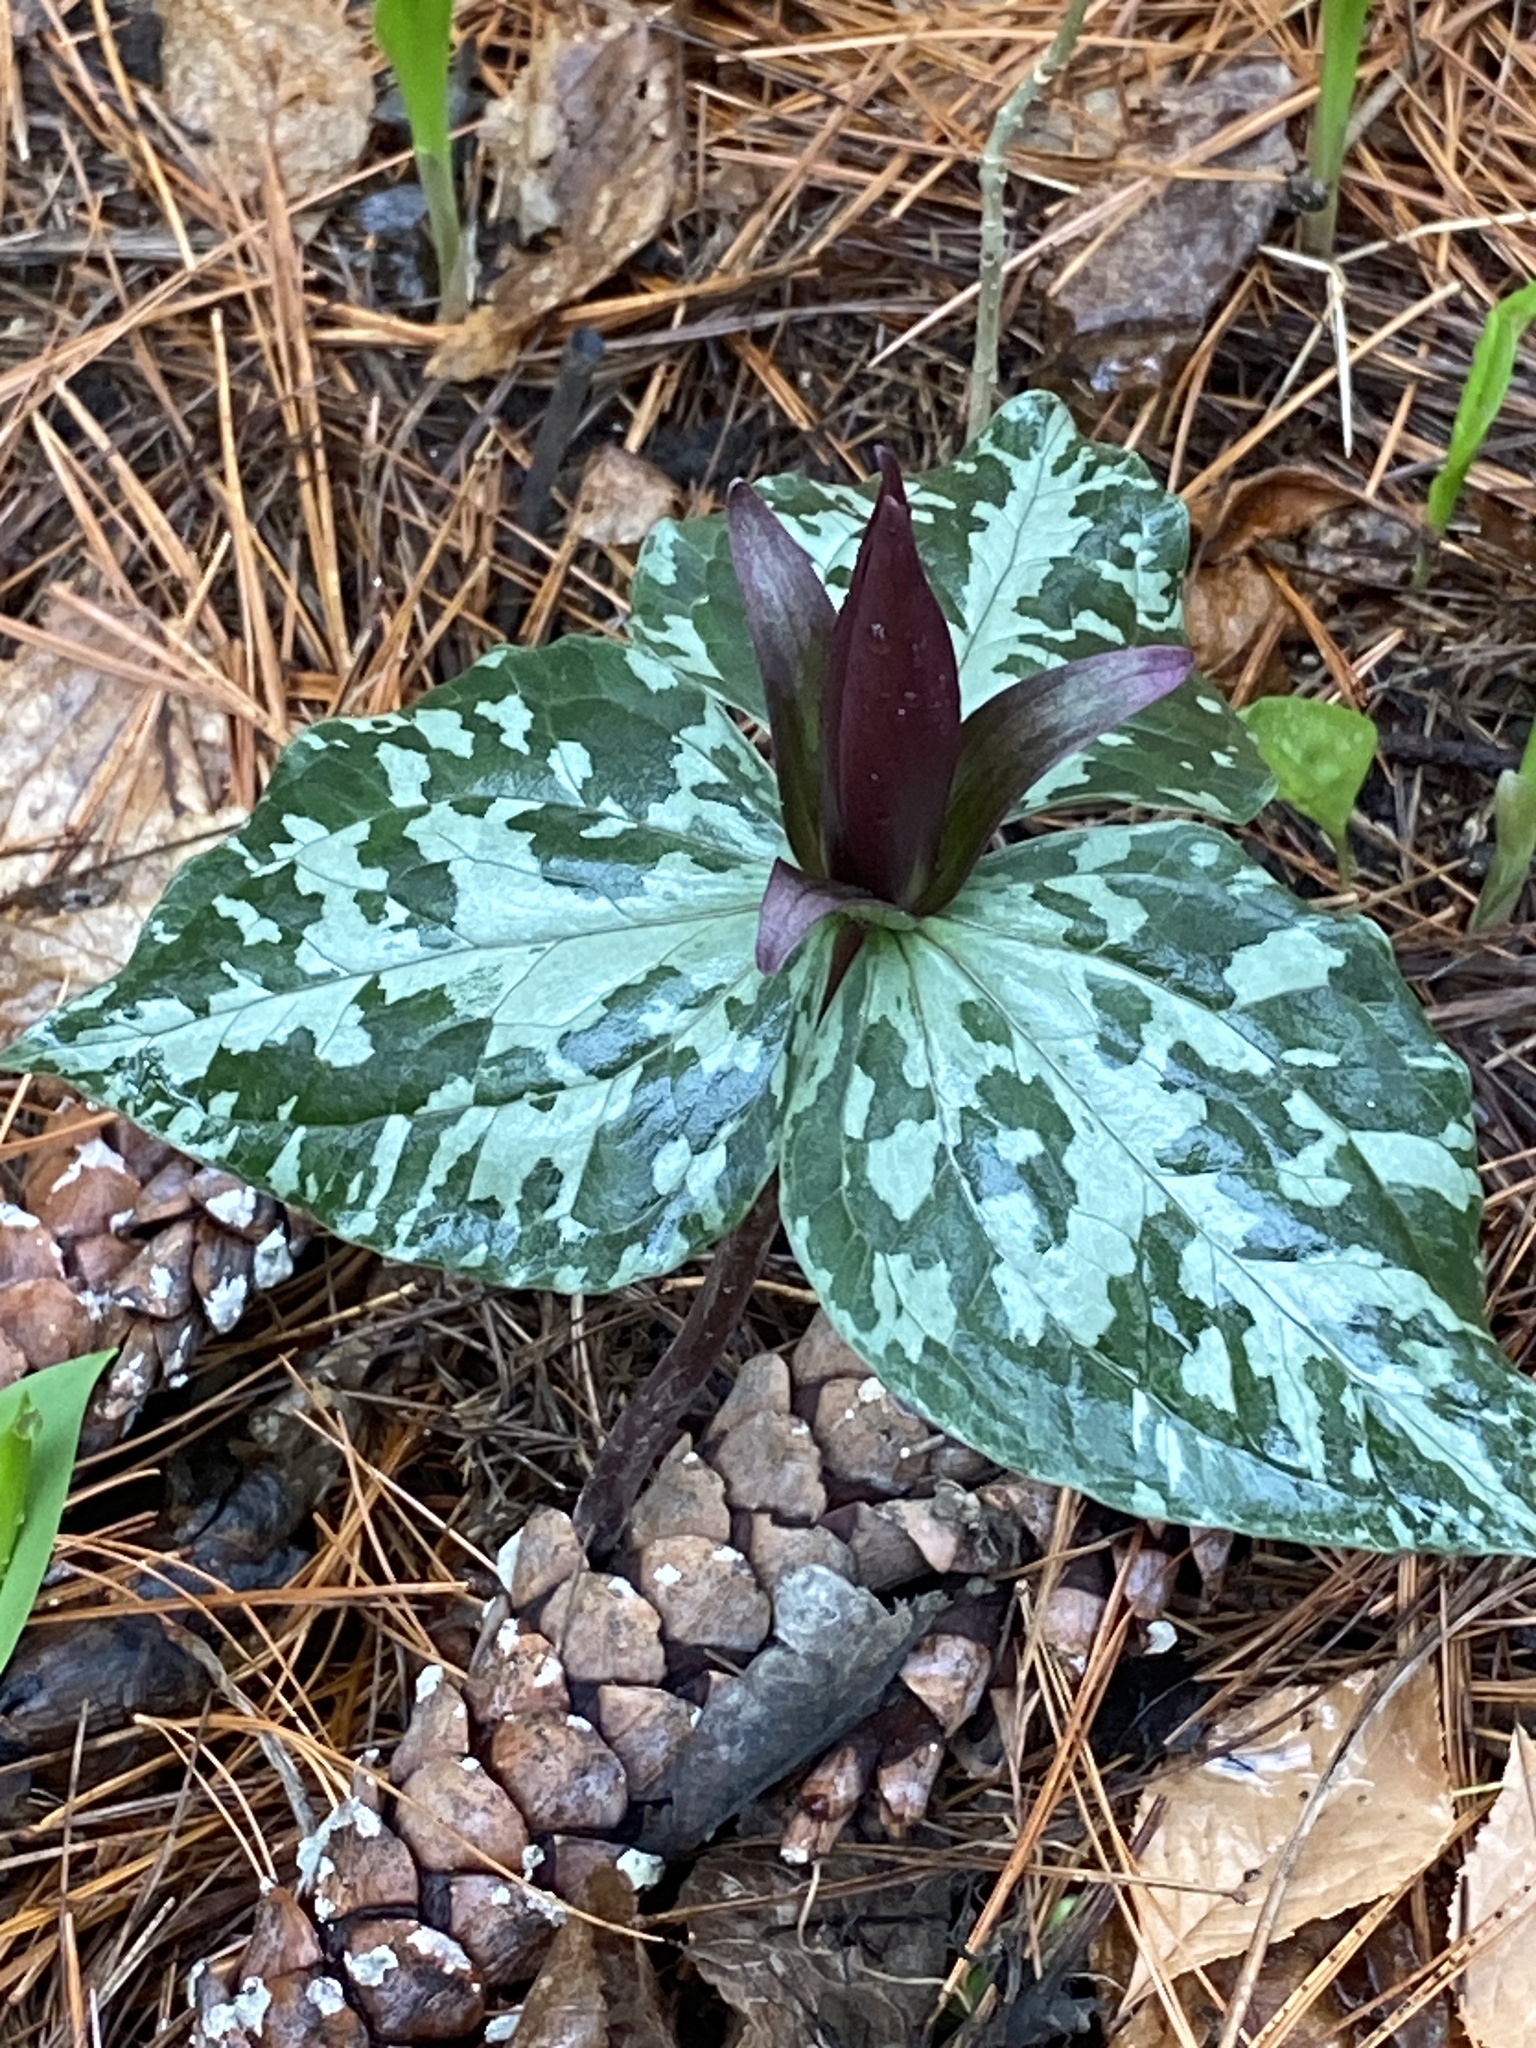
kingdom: Plantae
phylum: Tracheophyta
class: Liliopsida
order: Liliales
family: Melanthiaceae
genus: Trillium
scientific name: Trillium cuneatum
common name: Cuneate trillium
